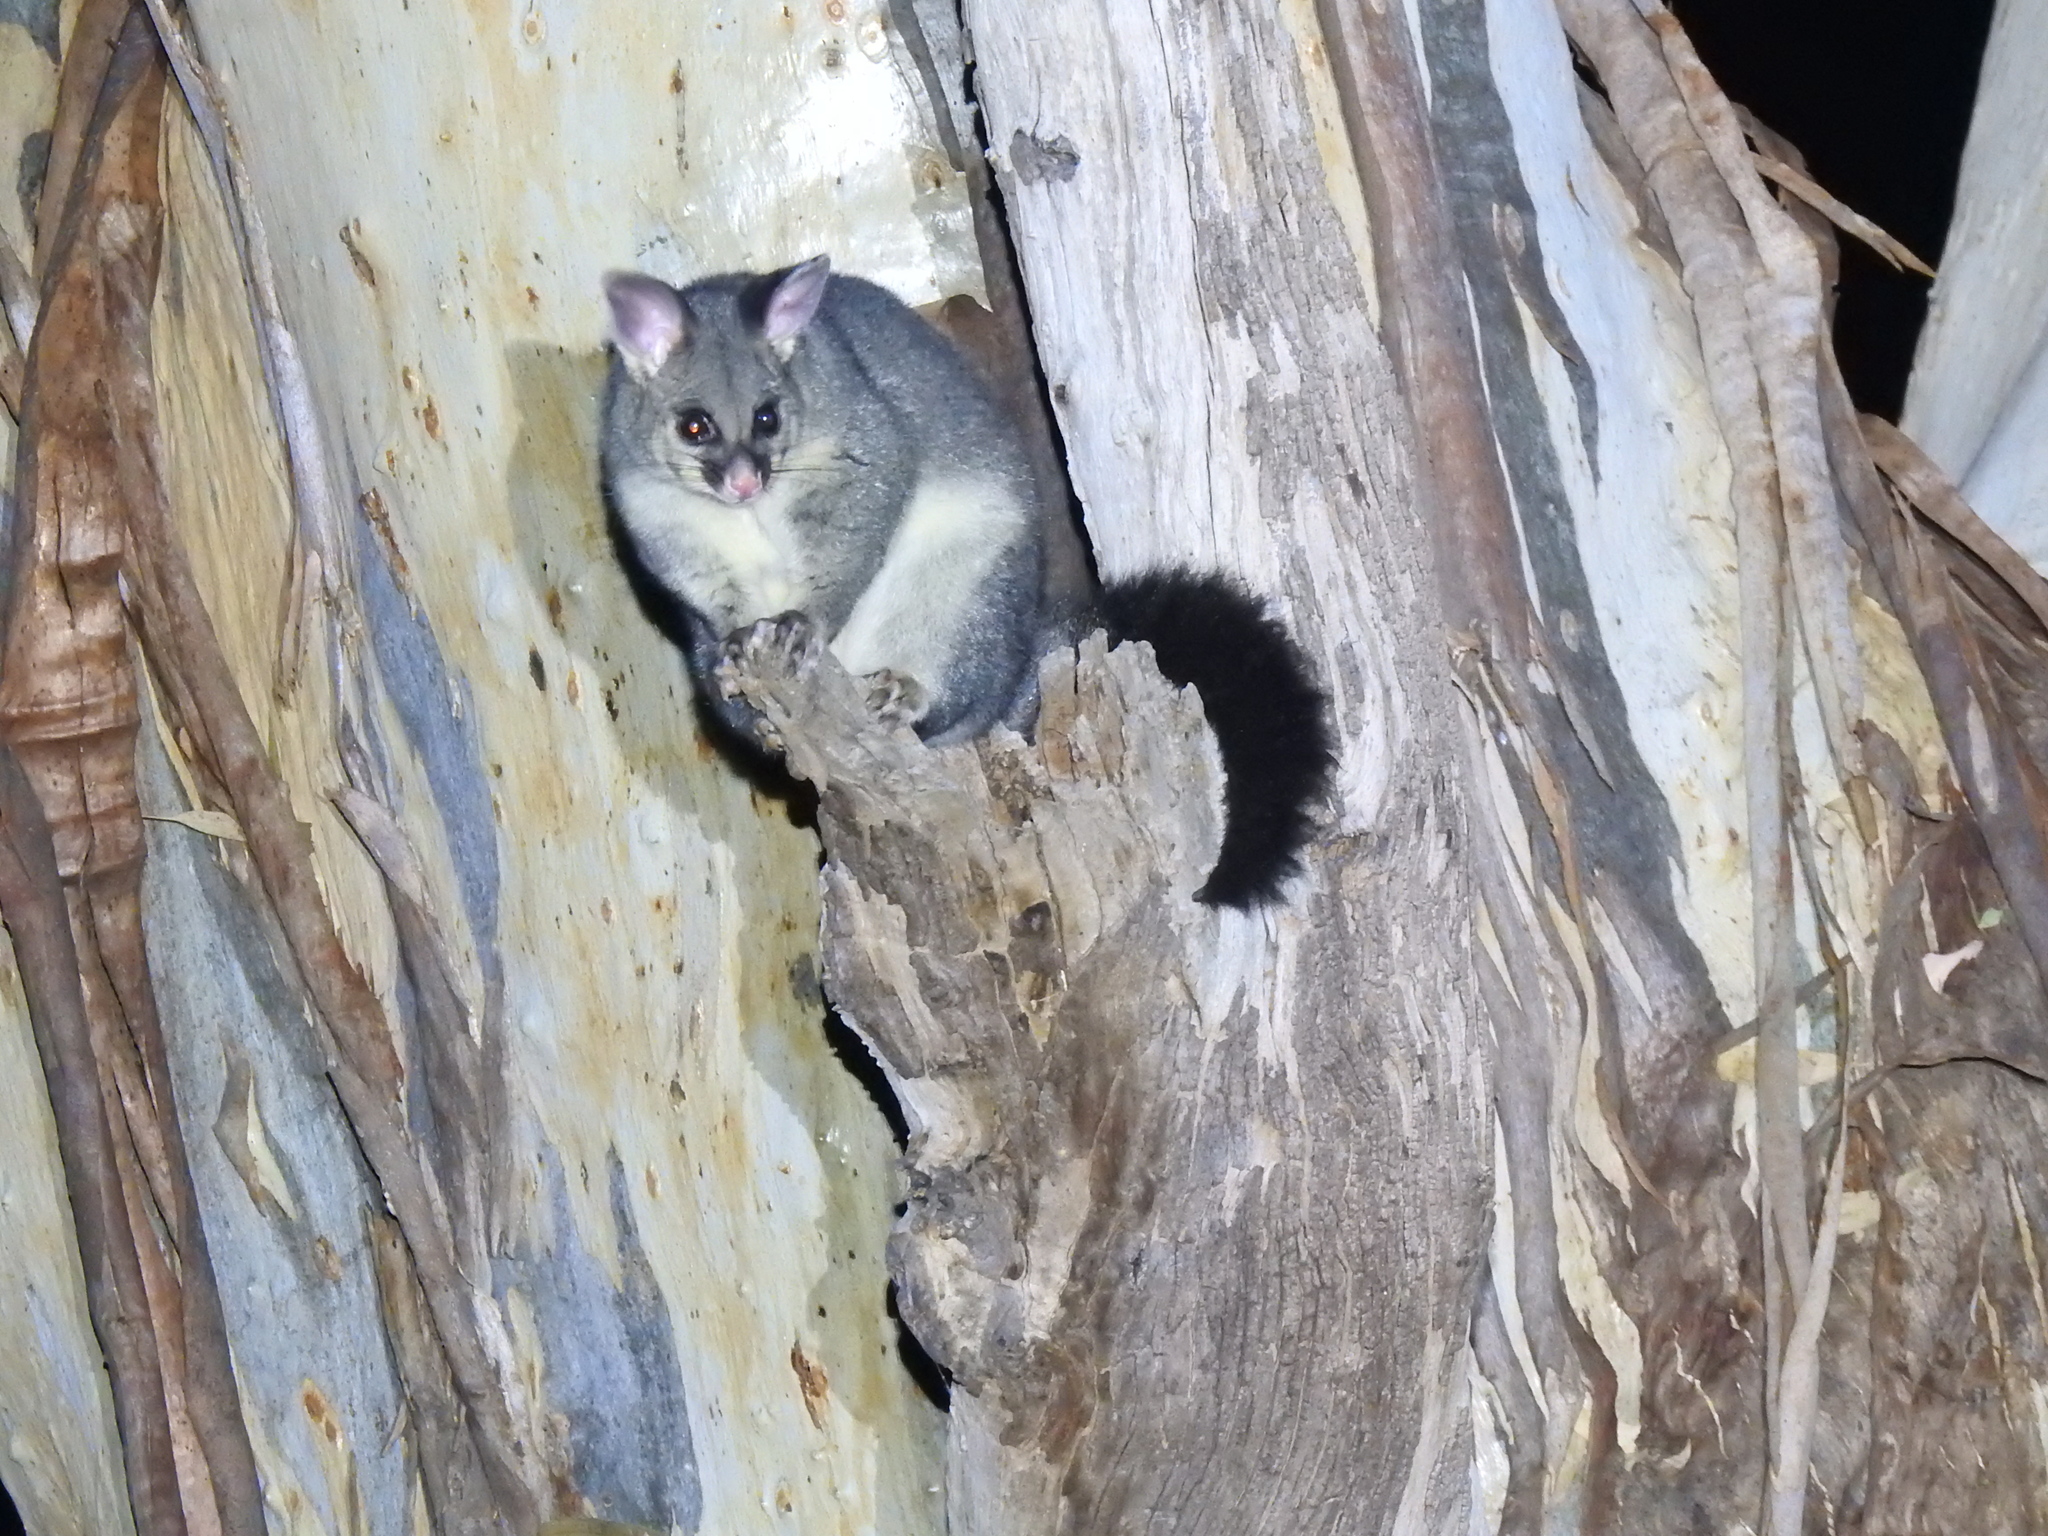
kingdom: Animalia
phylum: Chordata
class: Mammalia
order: Diprotodontia
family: Phalangeridae
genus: Trichosurus
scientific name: Trichosurus vulpecula
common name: Common brushtail
